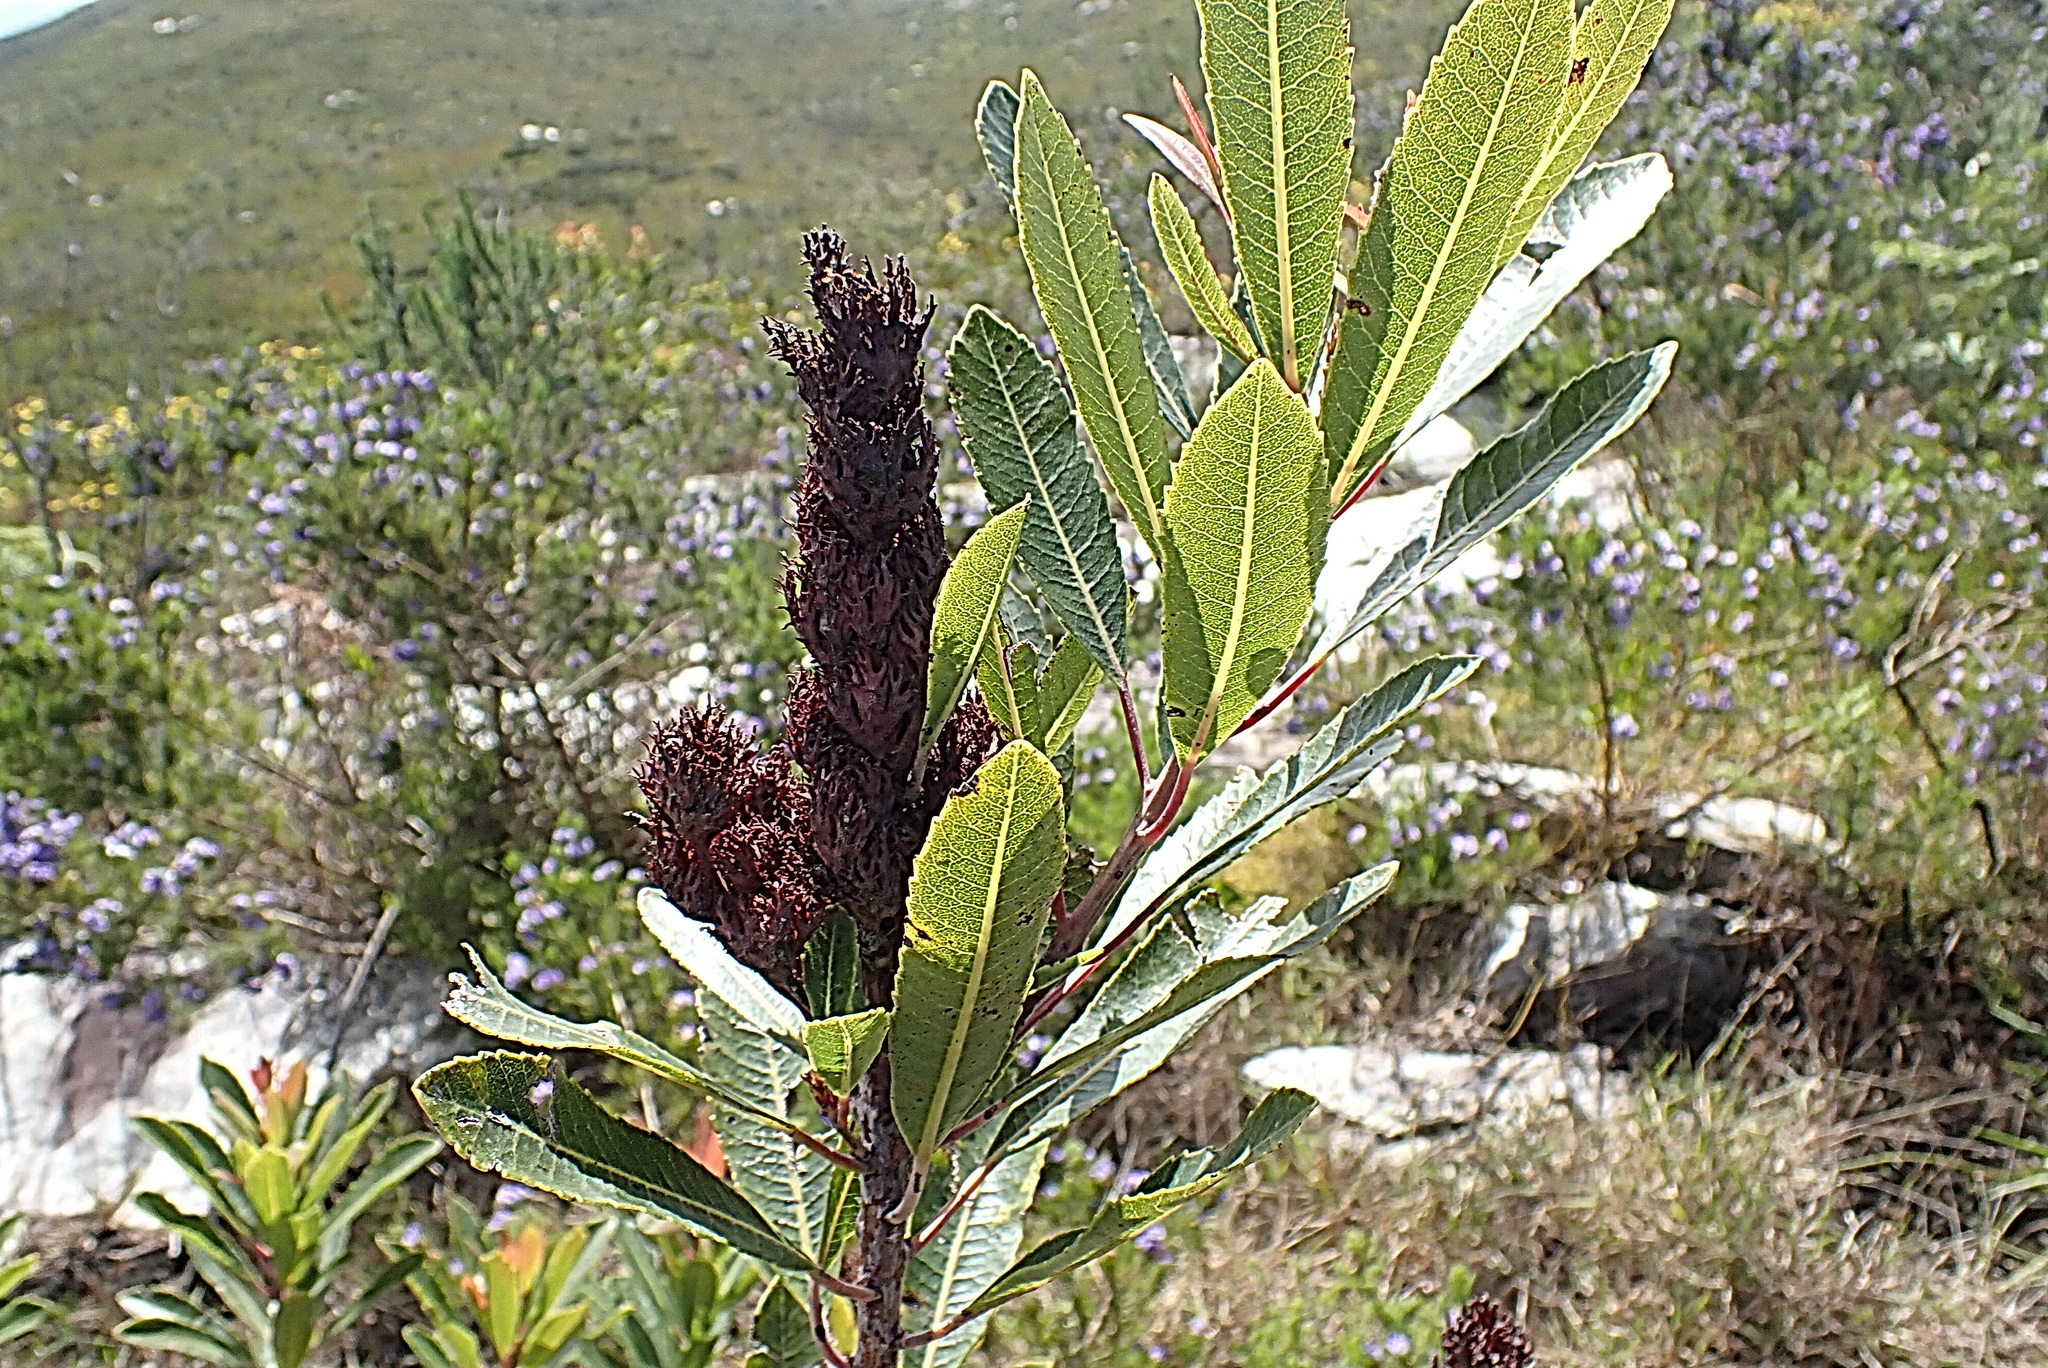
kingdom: Plantae
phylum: Tracheophyta
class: Magnoliopsida
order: Sapindales
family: Anacardiaceae
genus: Laurophyllus
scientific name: Laurophyllus capensis
